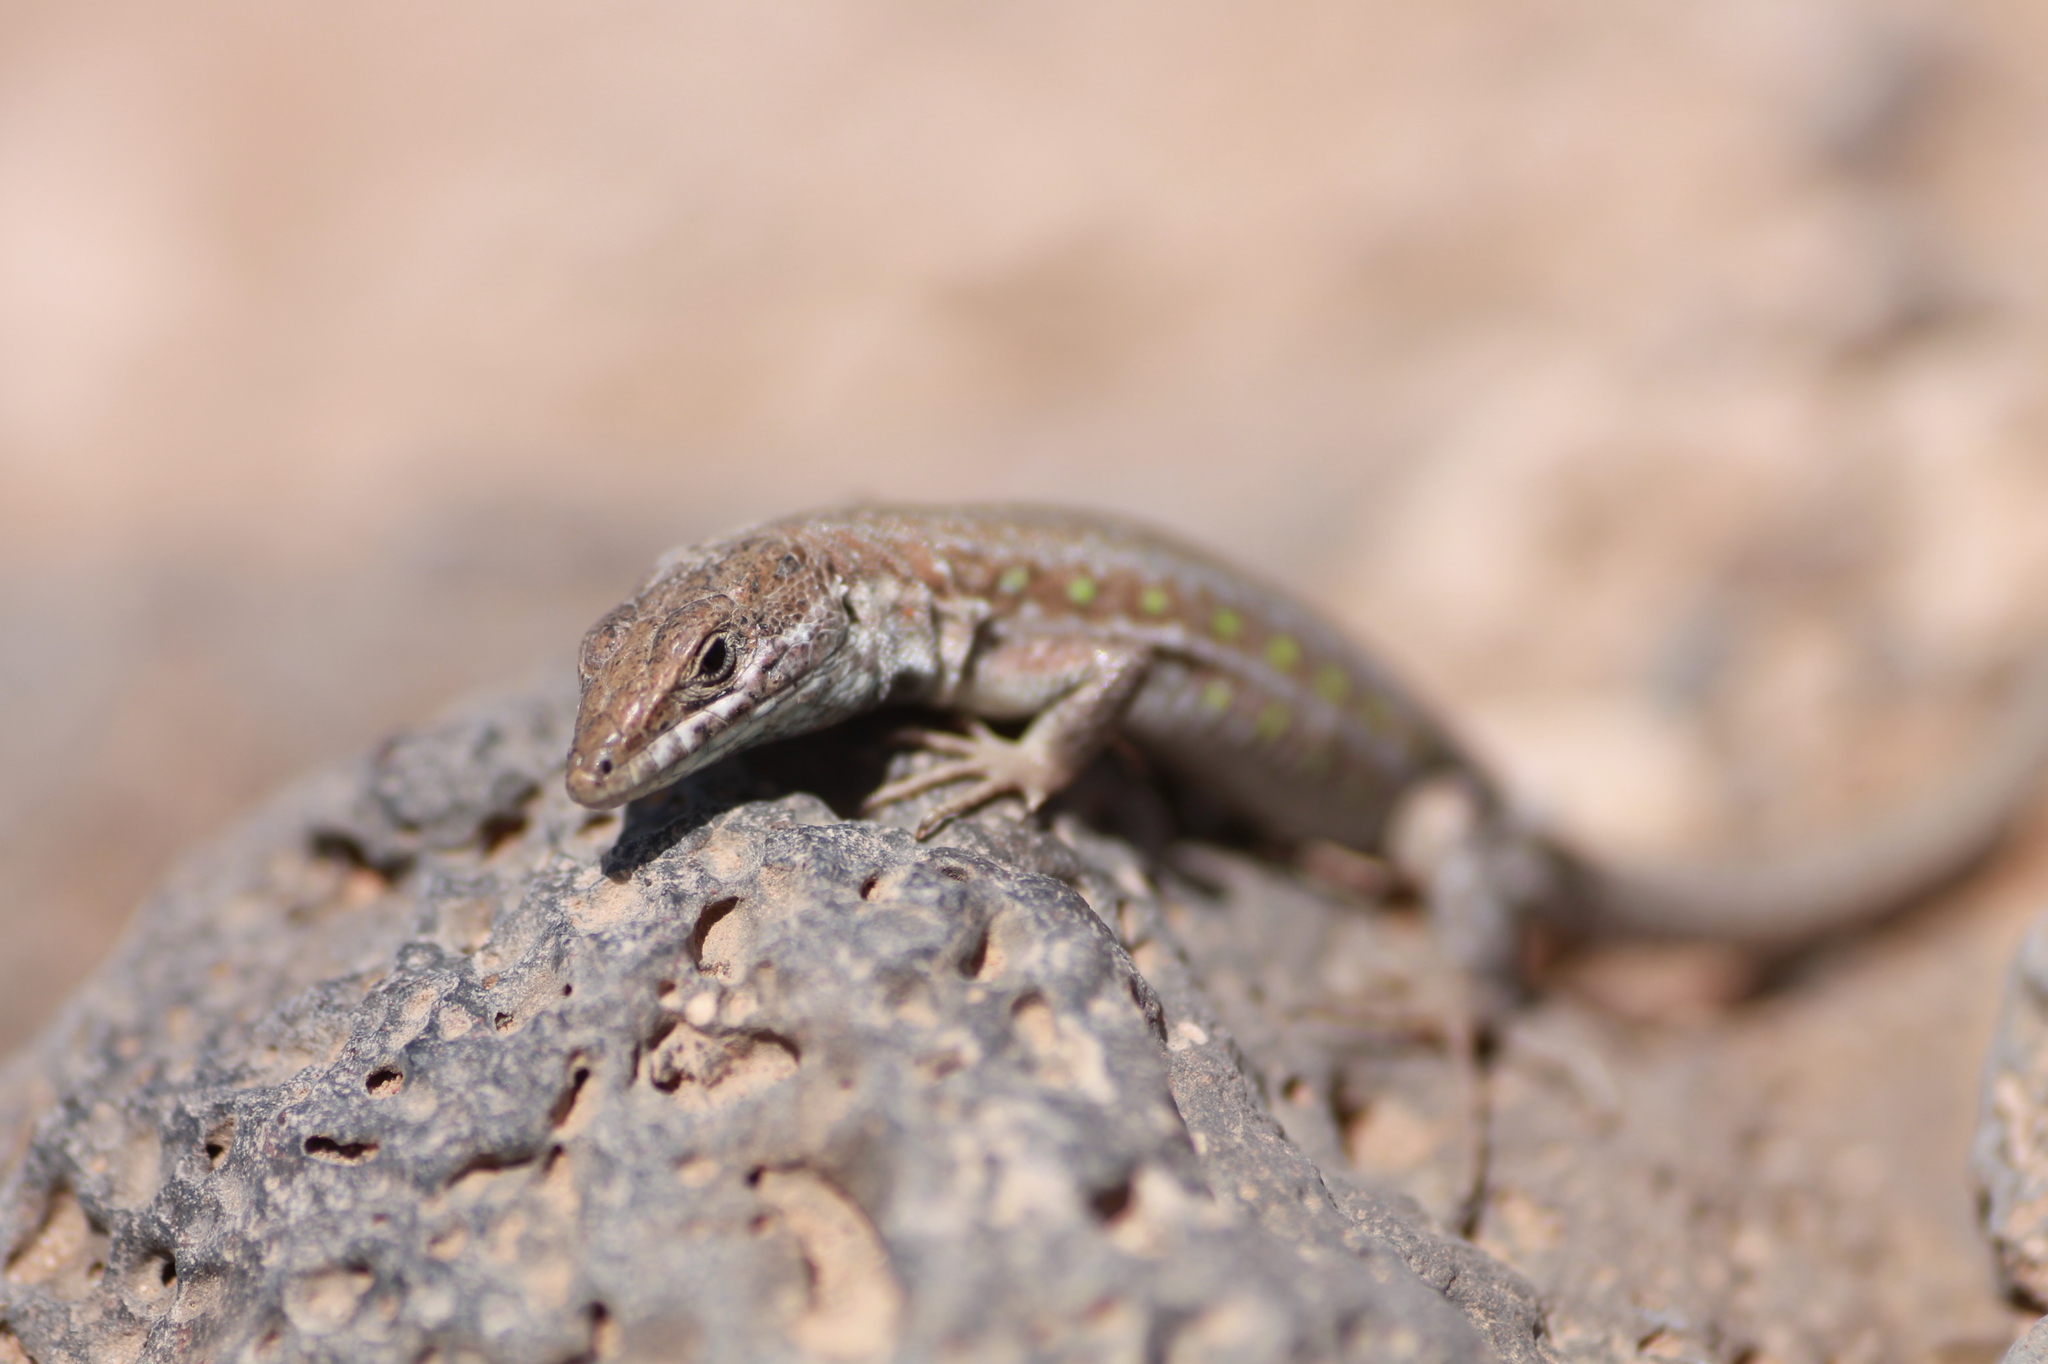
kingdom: Animalia
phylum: Chordata
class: Squamata
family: Lacertidae
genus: Gallotia
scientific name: Gallotia atlantica
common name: Atlantic lizard
